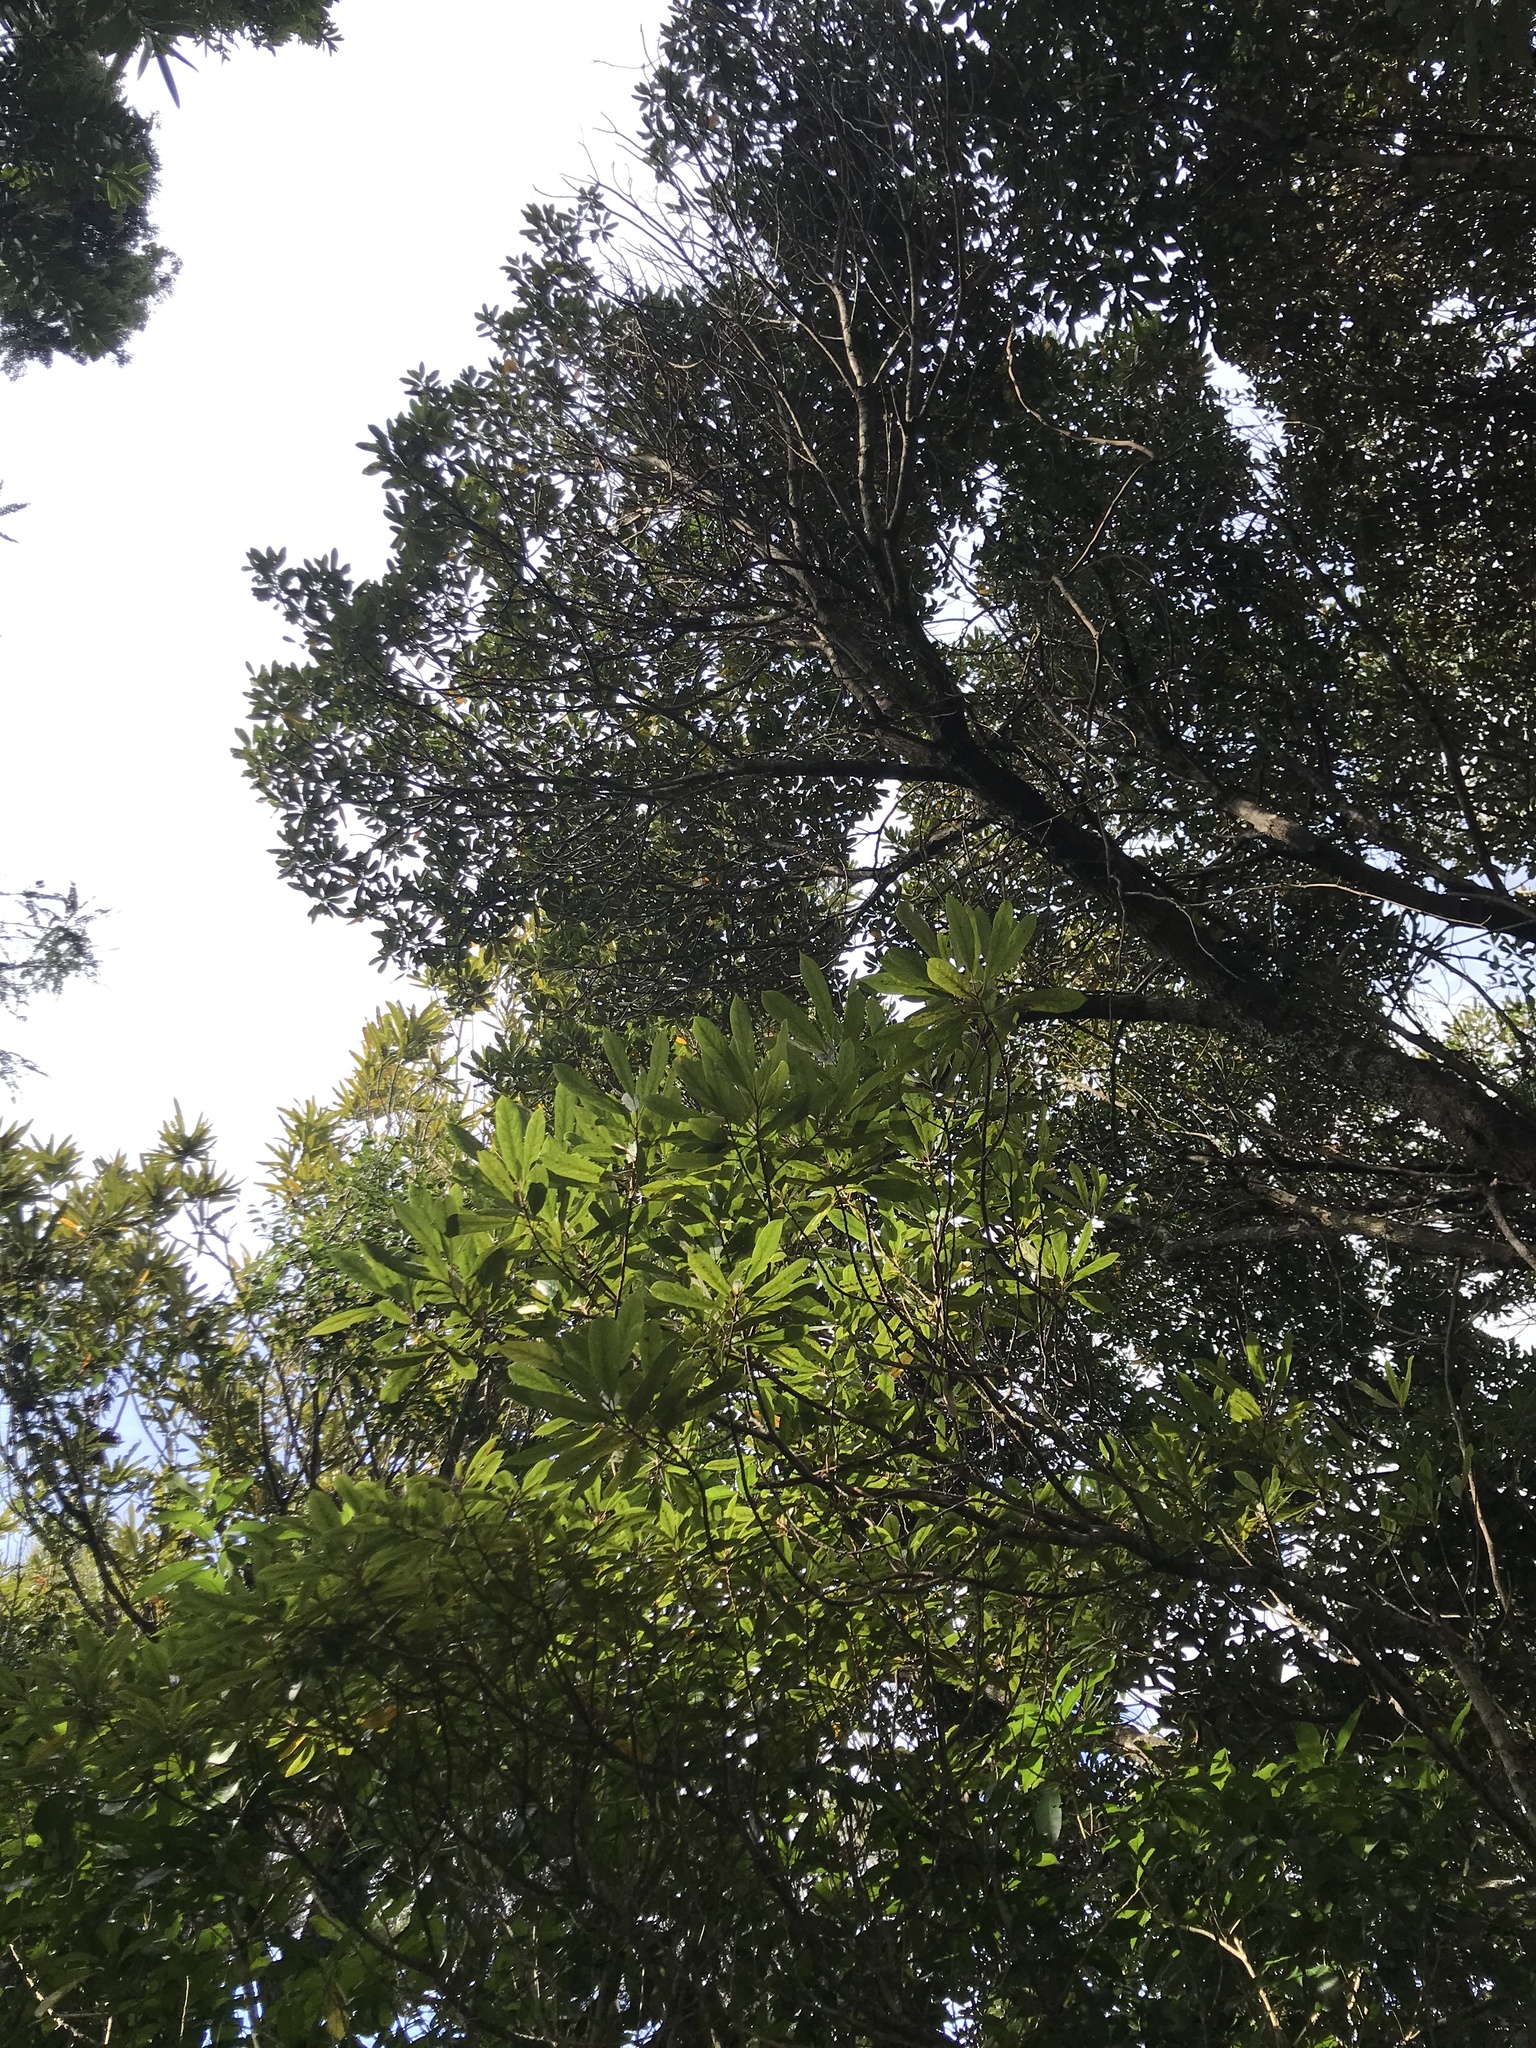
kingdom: Plantae
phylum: Tracheophyta
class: Magnoliopsida
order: Oxalidales
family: Elaeocarpaceae
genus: Elaeocarpus
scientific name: Elaeocarpus dentatus
